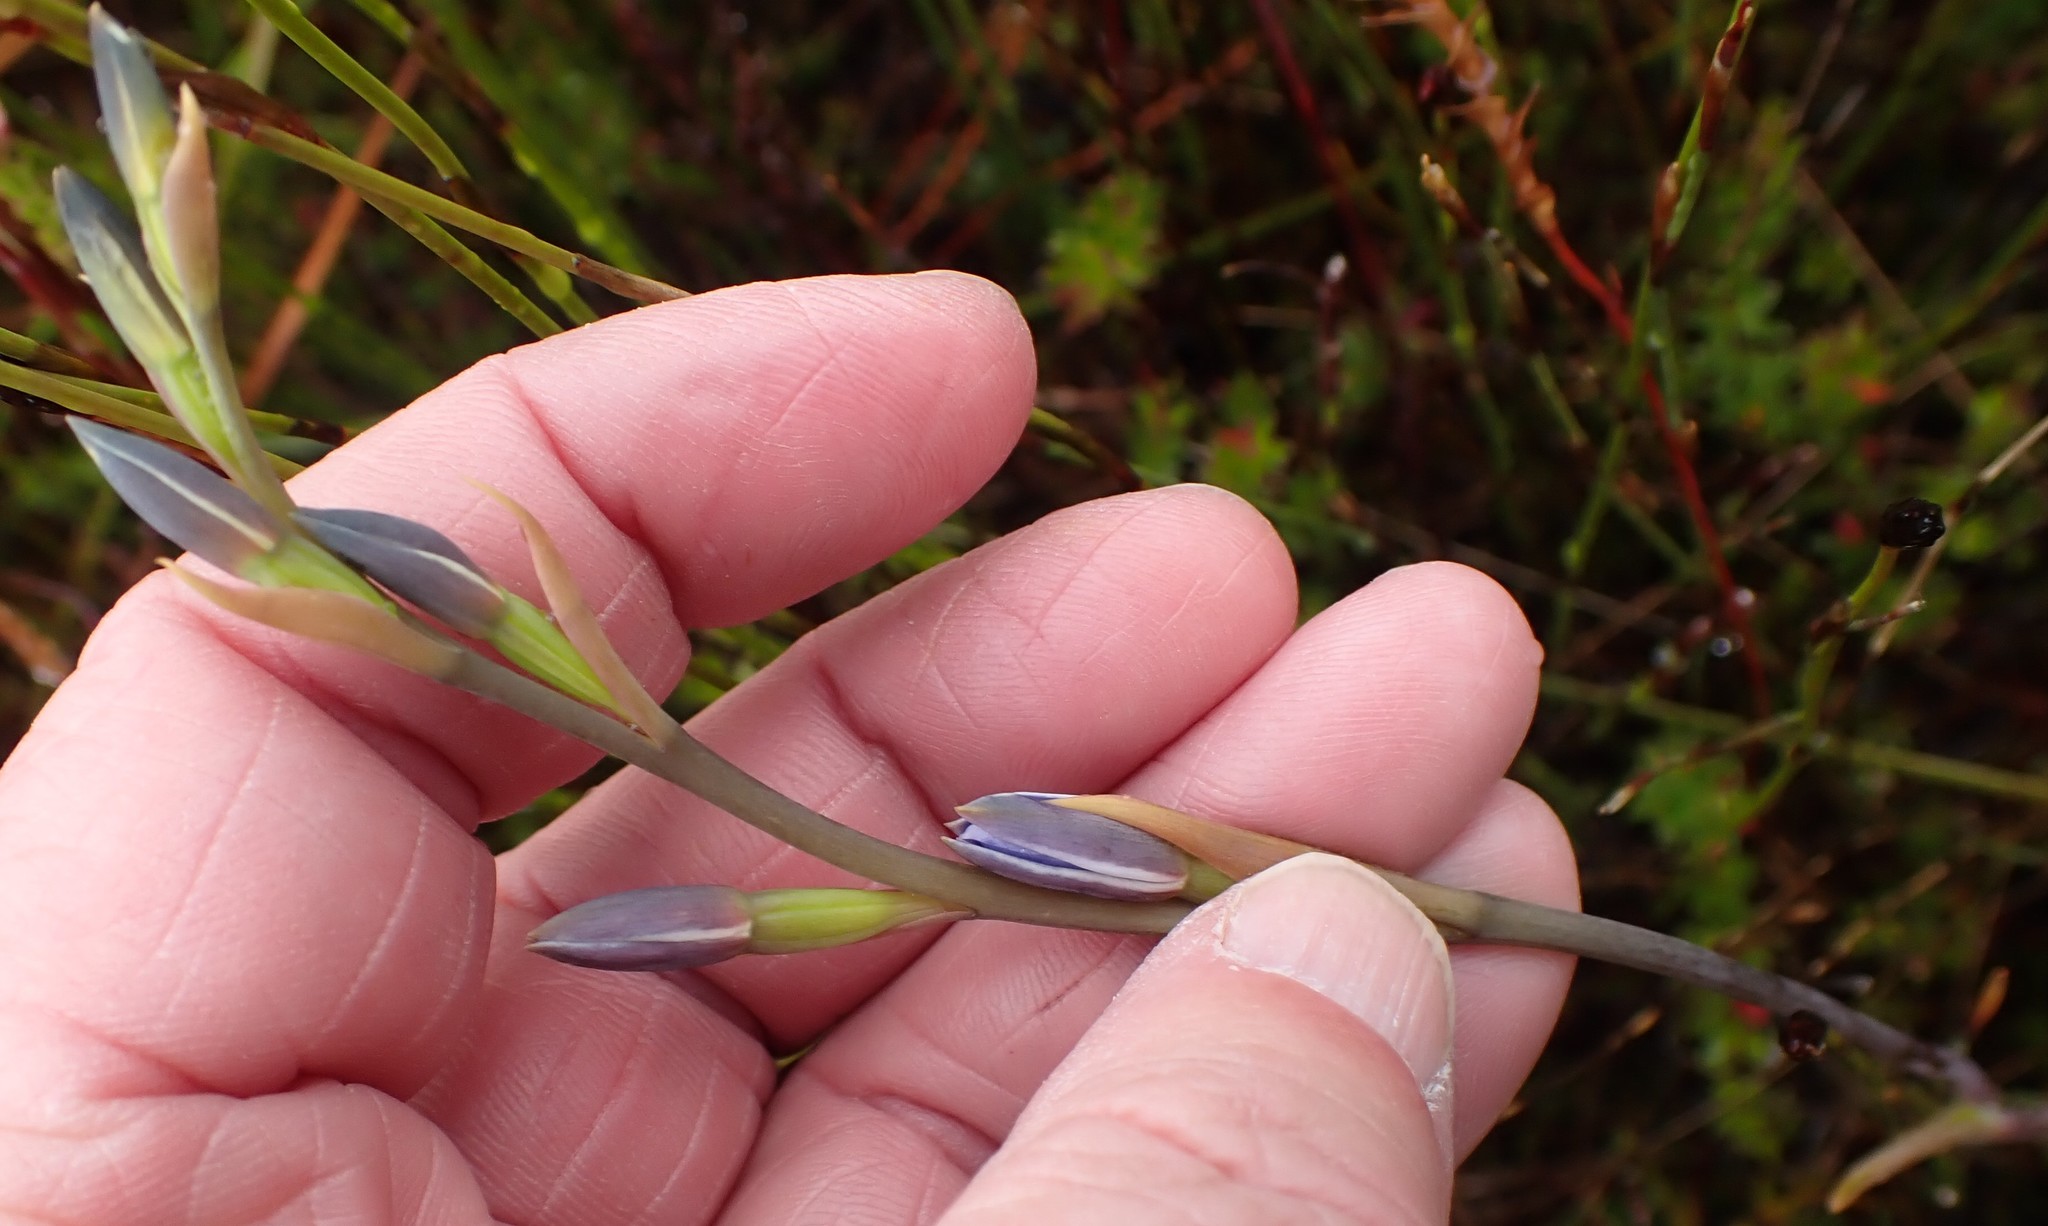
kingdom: Plantae
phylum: Tracheophyta
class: Liliopsida
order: Asparagales
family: Orchidaceae
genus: Thelymitra
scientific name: Thelymitra longiloba
